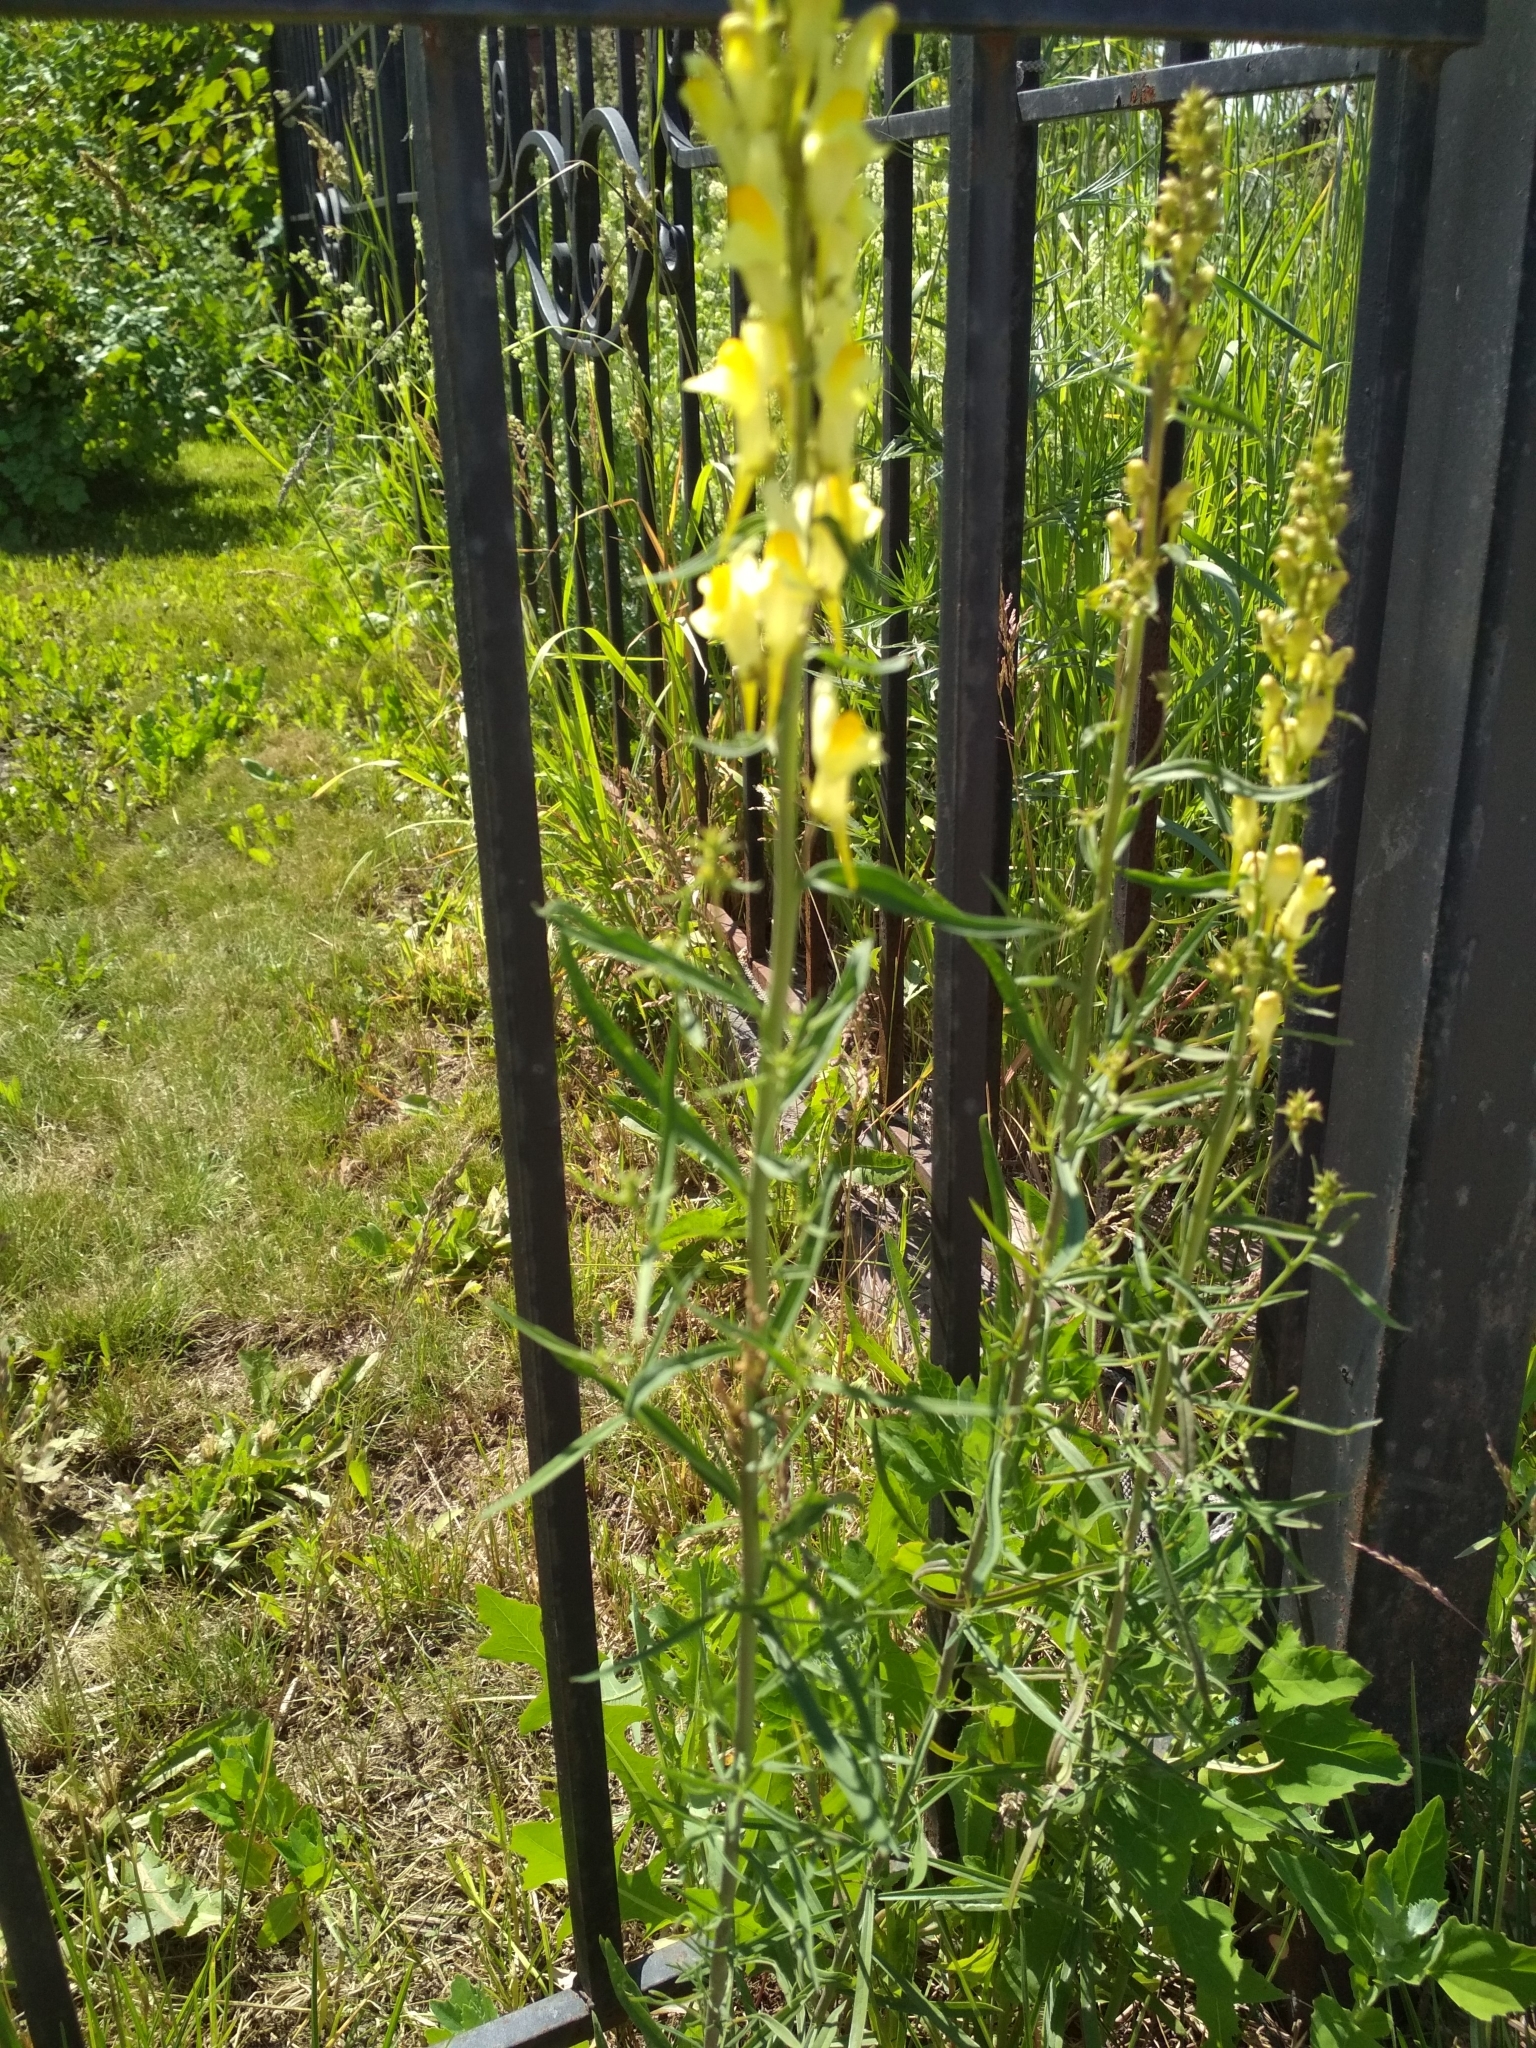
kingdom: Plantae
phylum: Tracheophyta
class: Magnoliopsida
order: Lamiales
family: Plantaginaceae
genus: Linaria
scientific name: Linaria vulgaris
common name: Butter and eggs
